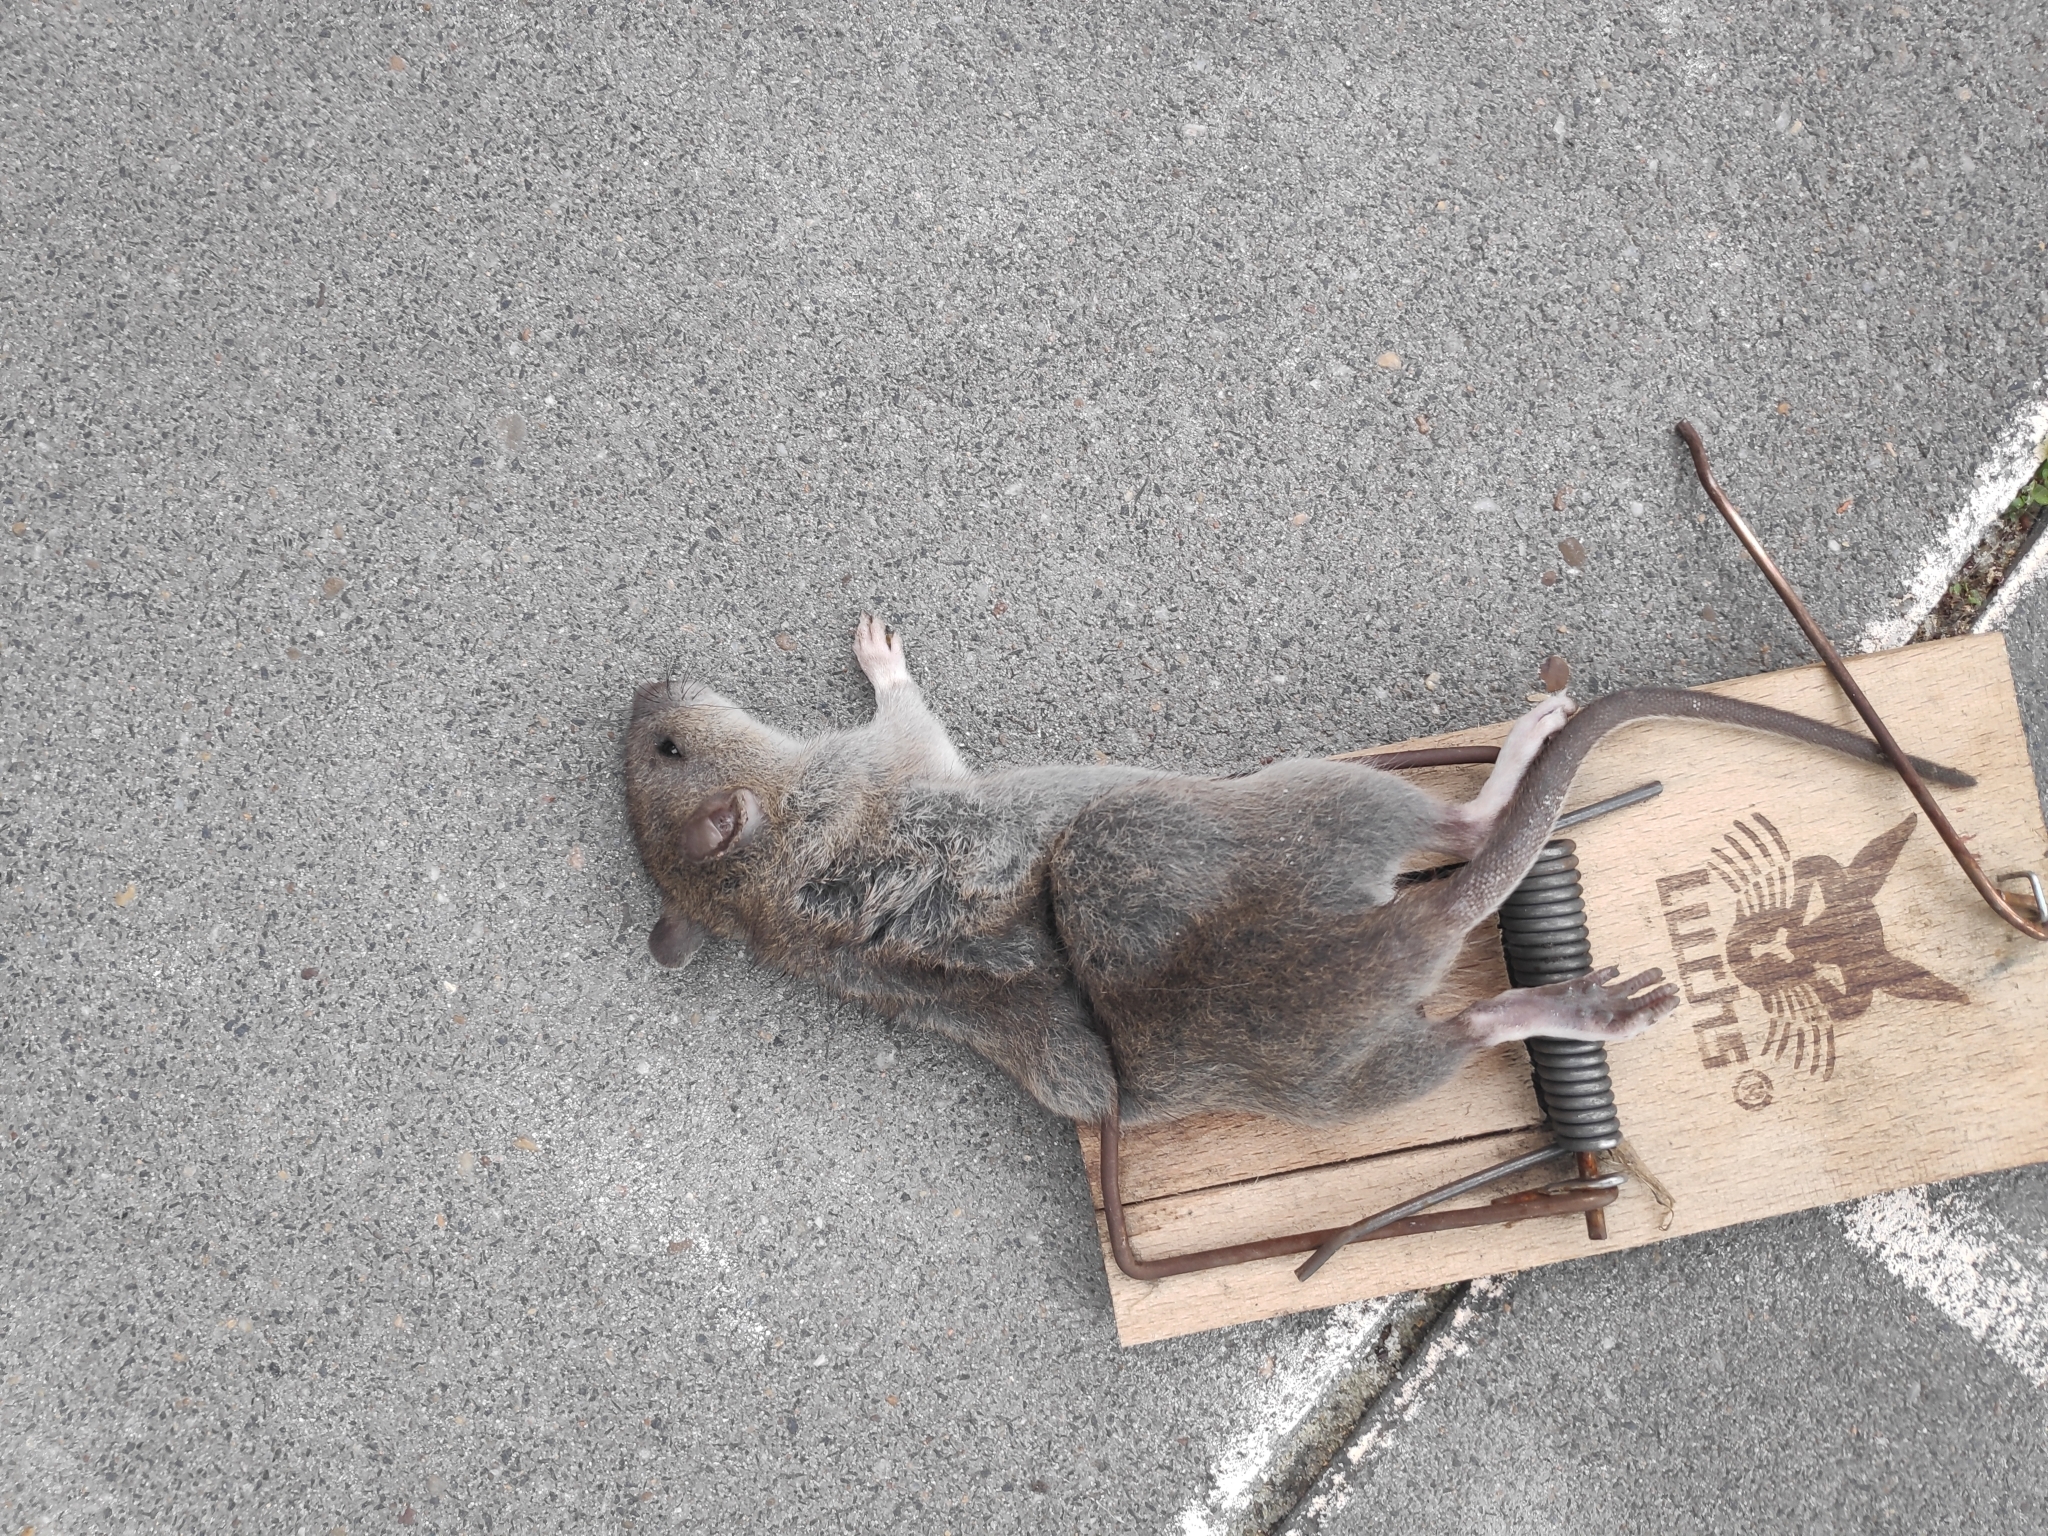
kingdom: Animalia
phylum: Chordata
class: Mammalia
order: Rodentia
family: Muridae
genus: Rattus
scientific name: Rattus norvegicus
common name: Brown rat
